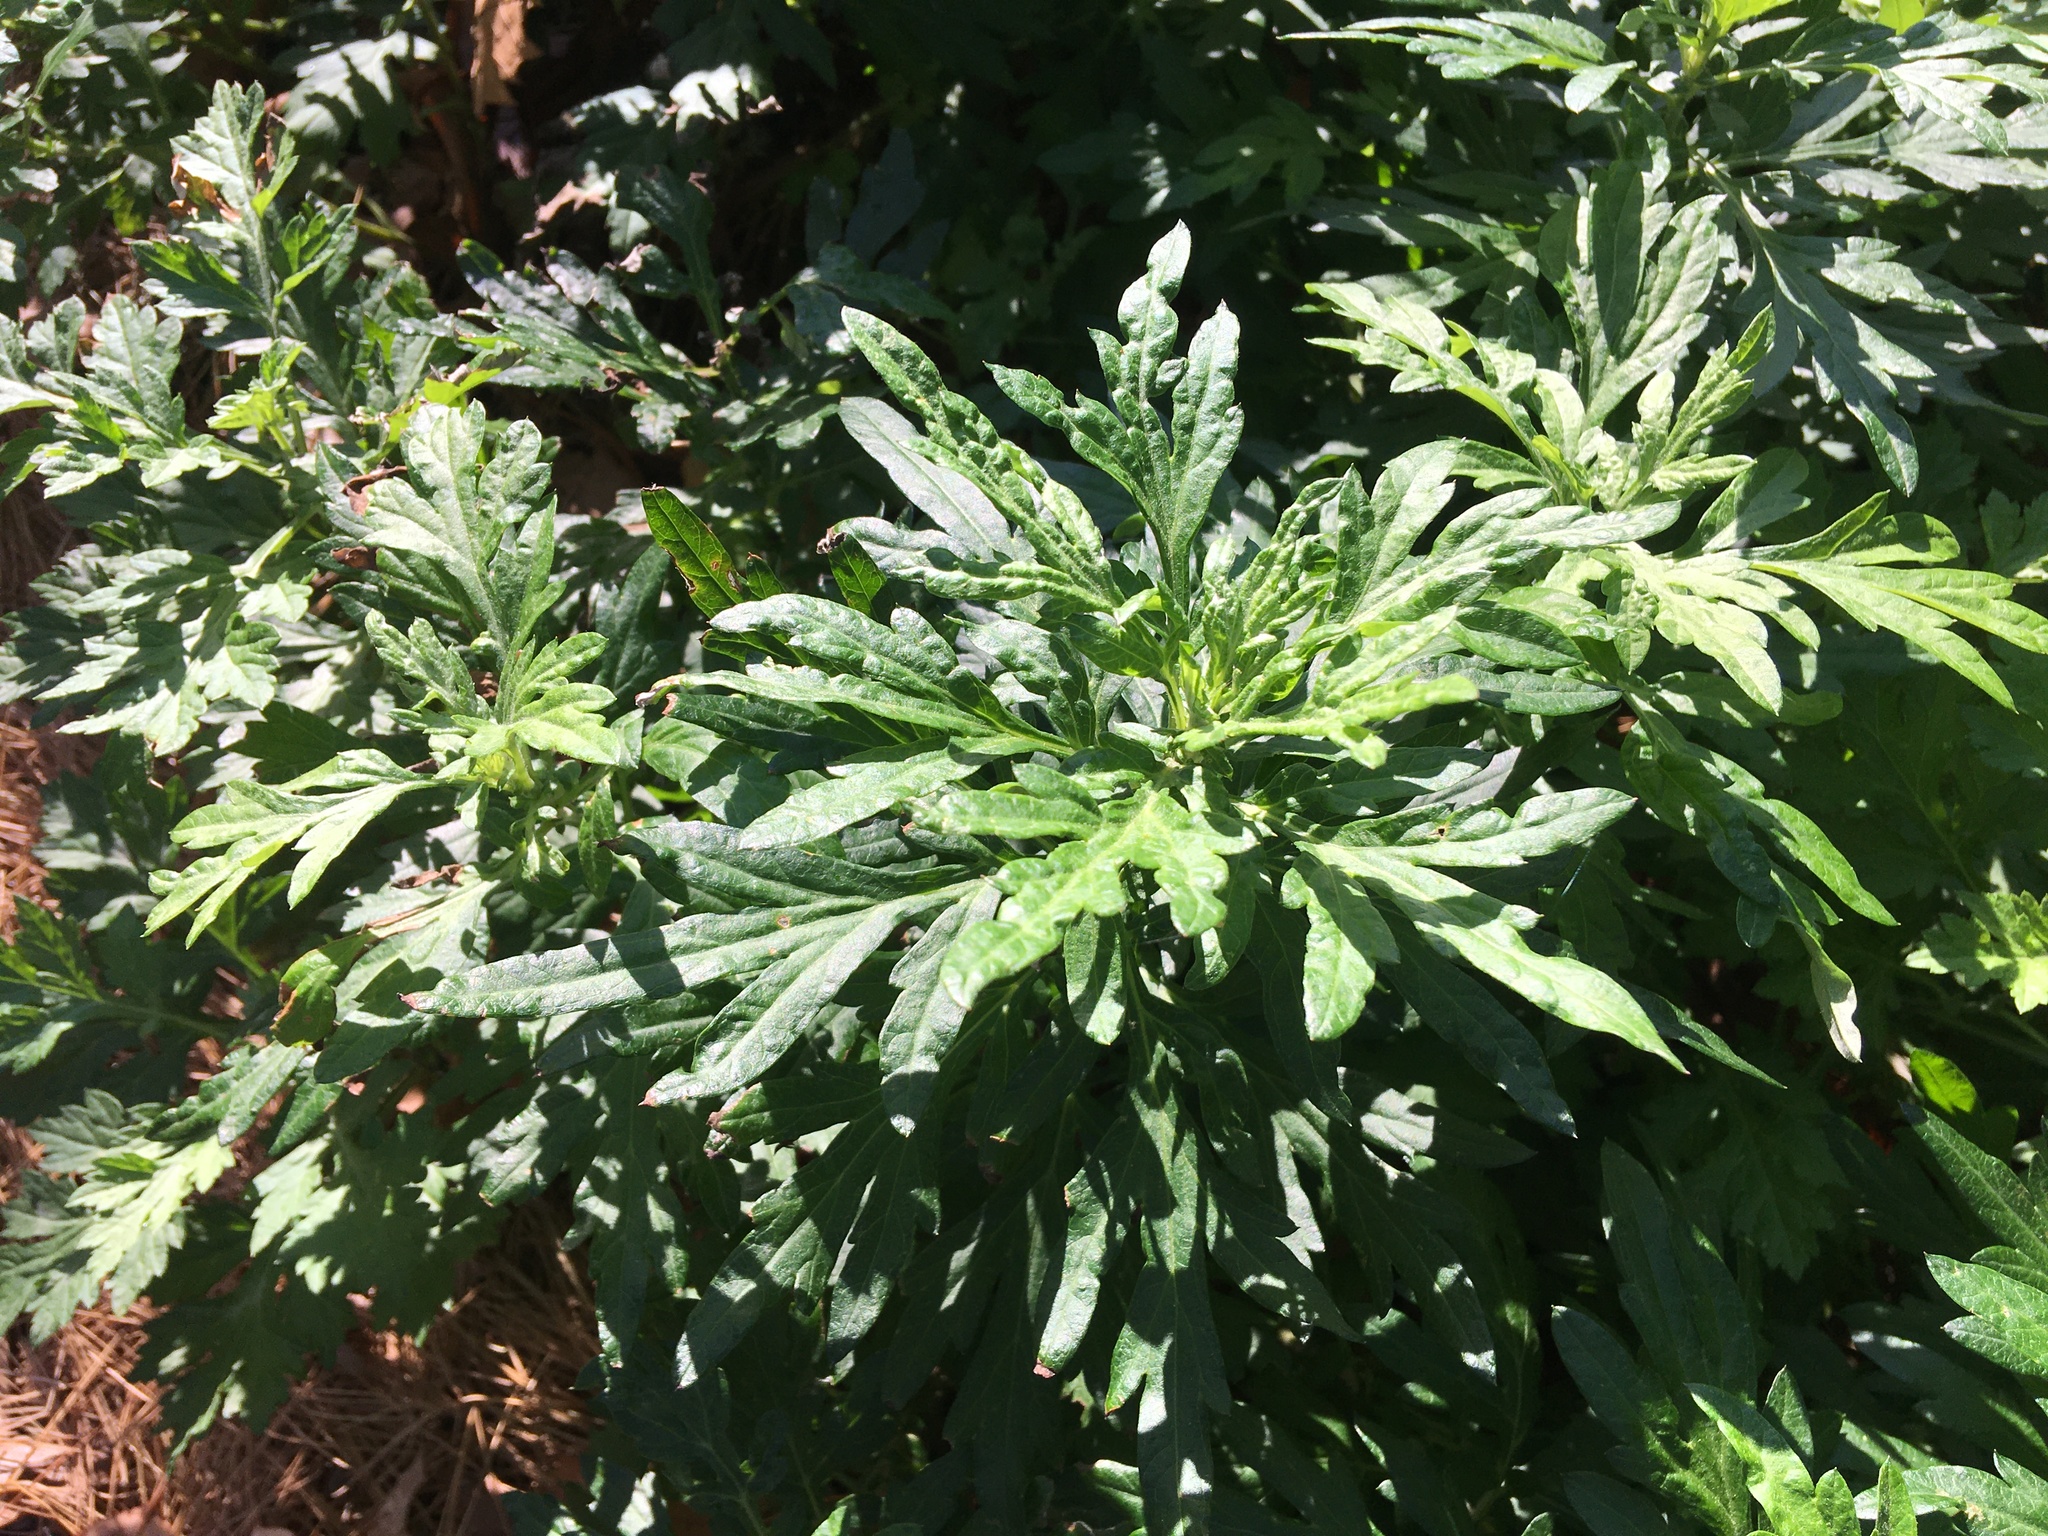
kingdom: Plantae
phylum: Tracheophyta
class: Magnoliopsida
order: Asterales
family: Asteraceae
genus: Artemisia
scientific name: Artemisia vulgaris
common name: Mugwort
